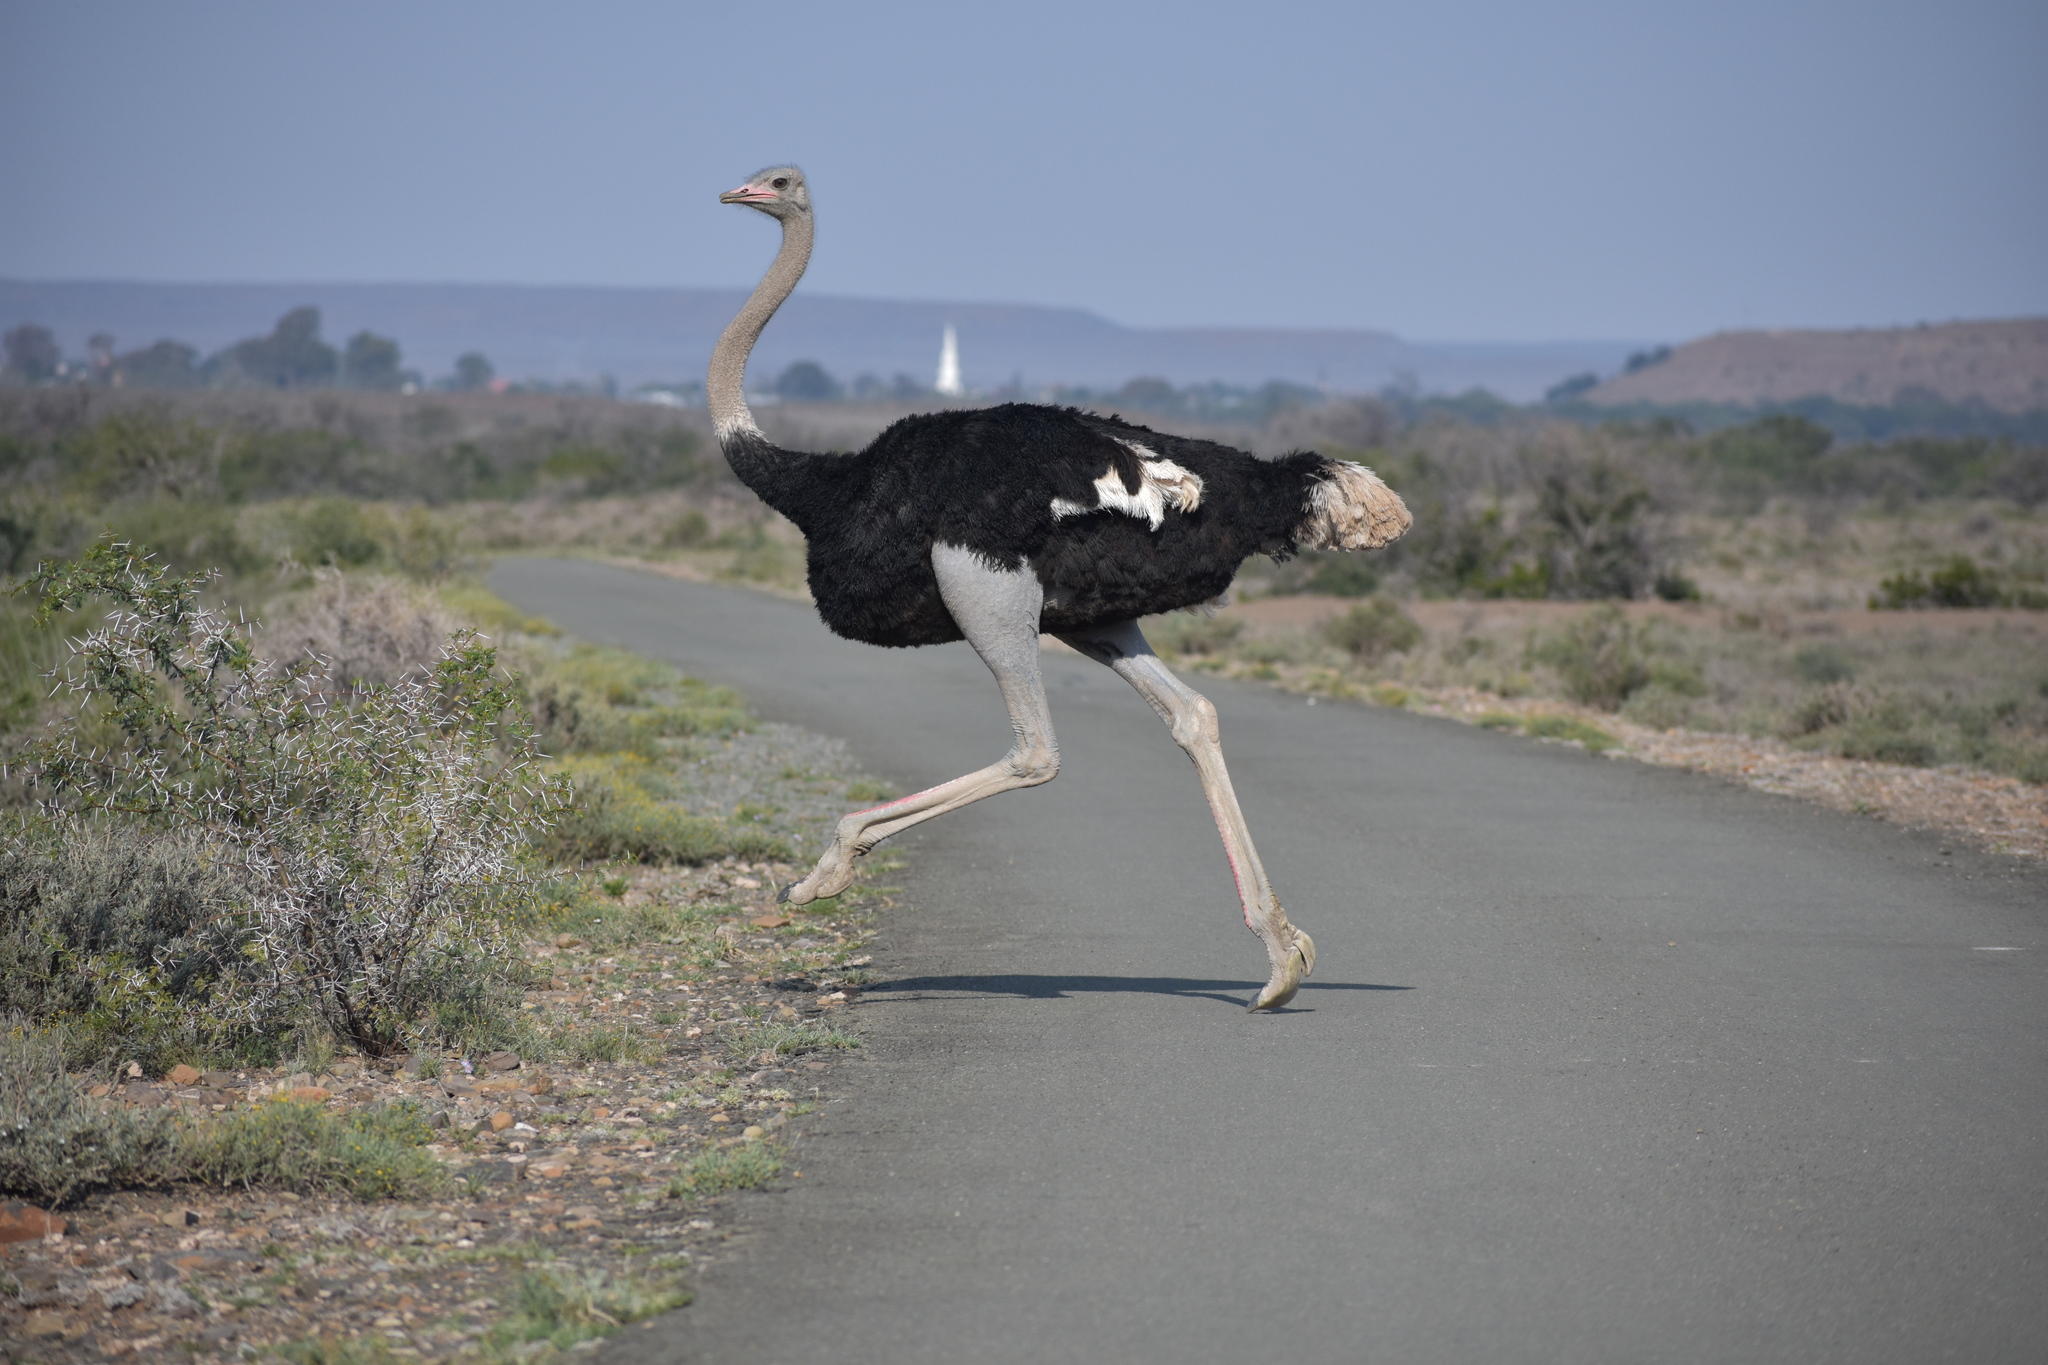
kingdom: Animalia
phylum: Chordata
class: Aves
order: Struthioniformes
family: Struthionidae
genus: Struthio
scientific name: Struthio camelus
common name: Common ostrich
